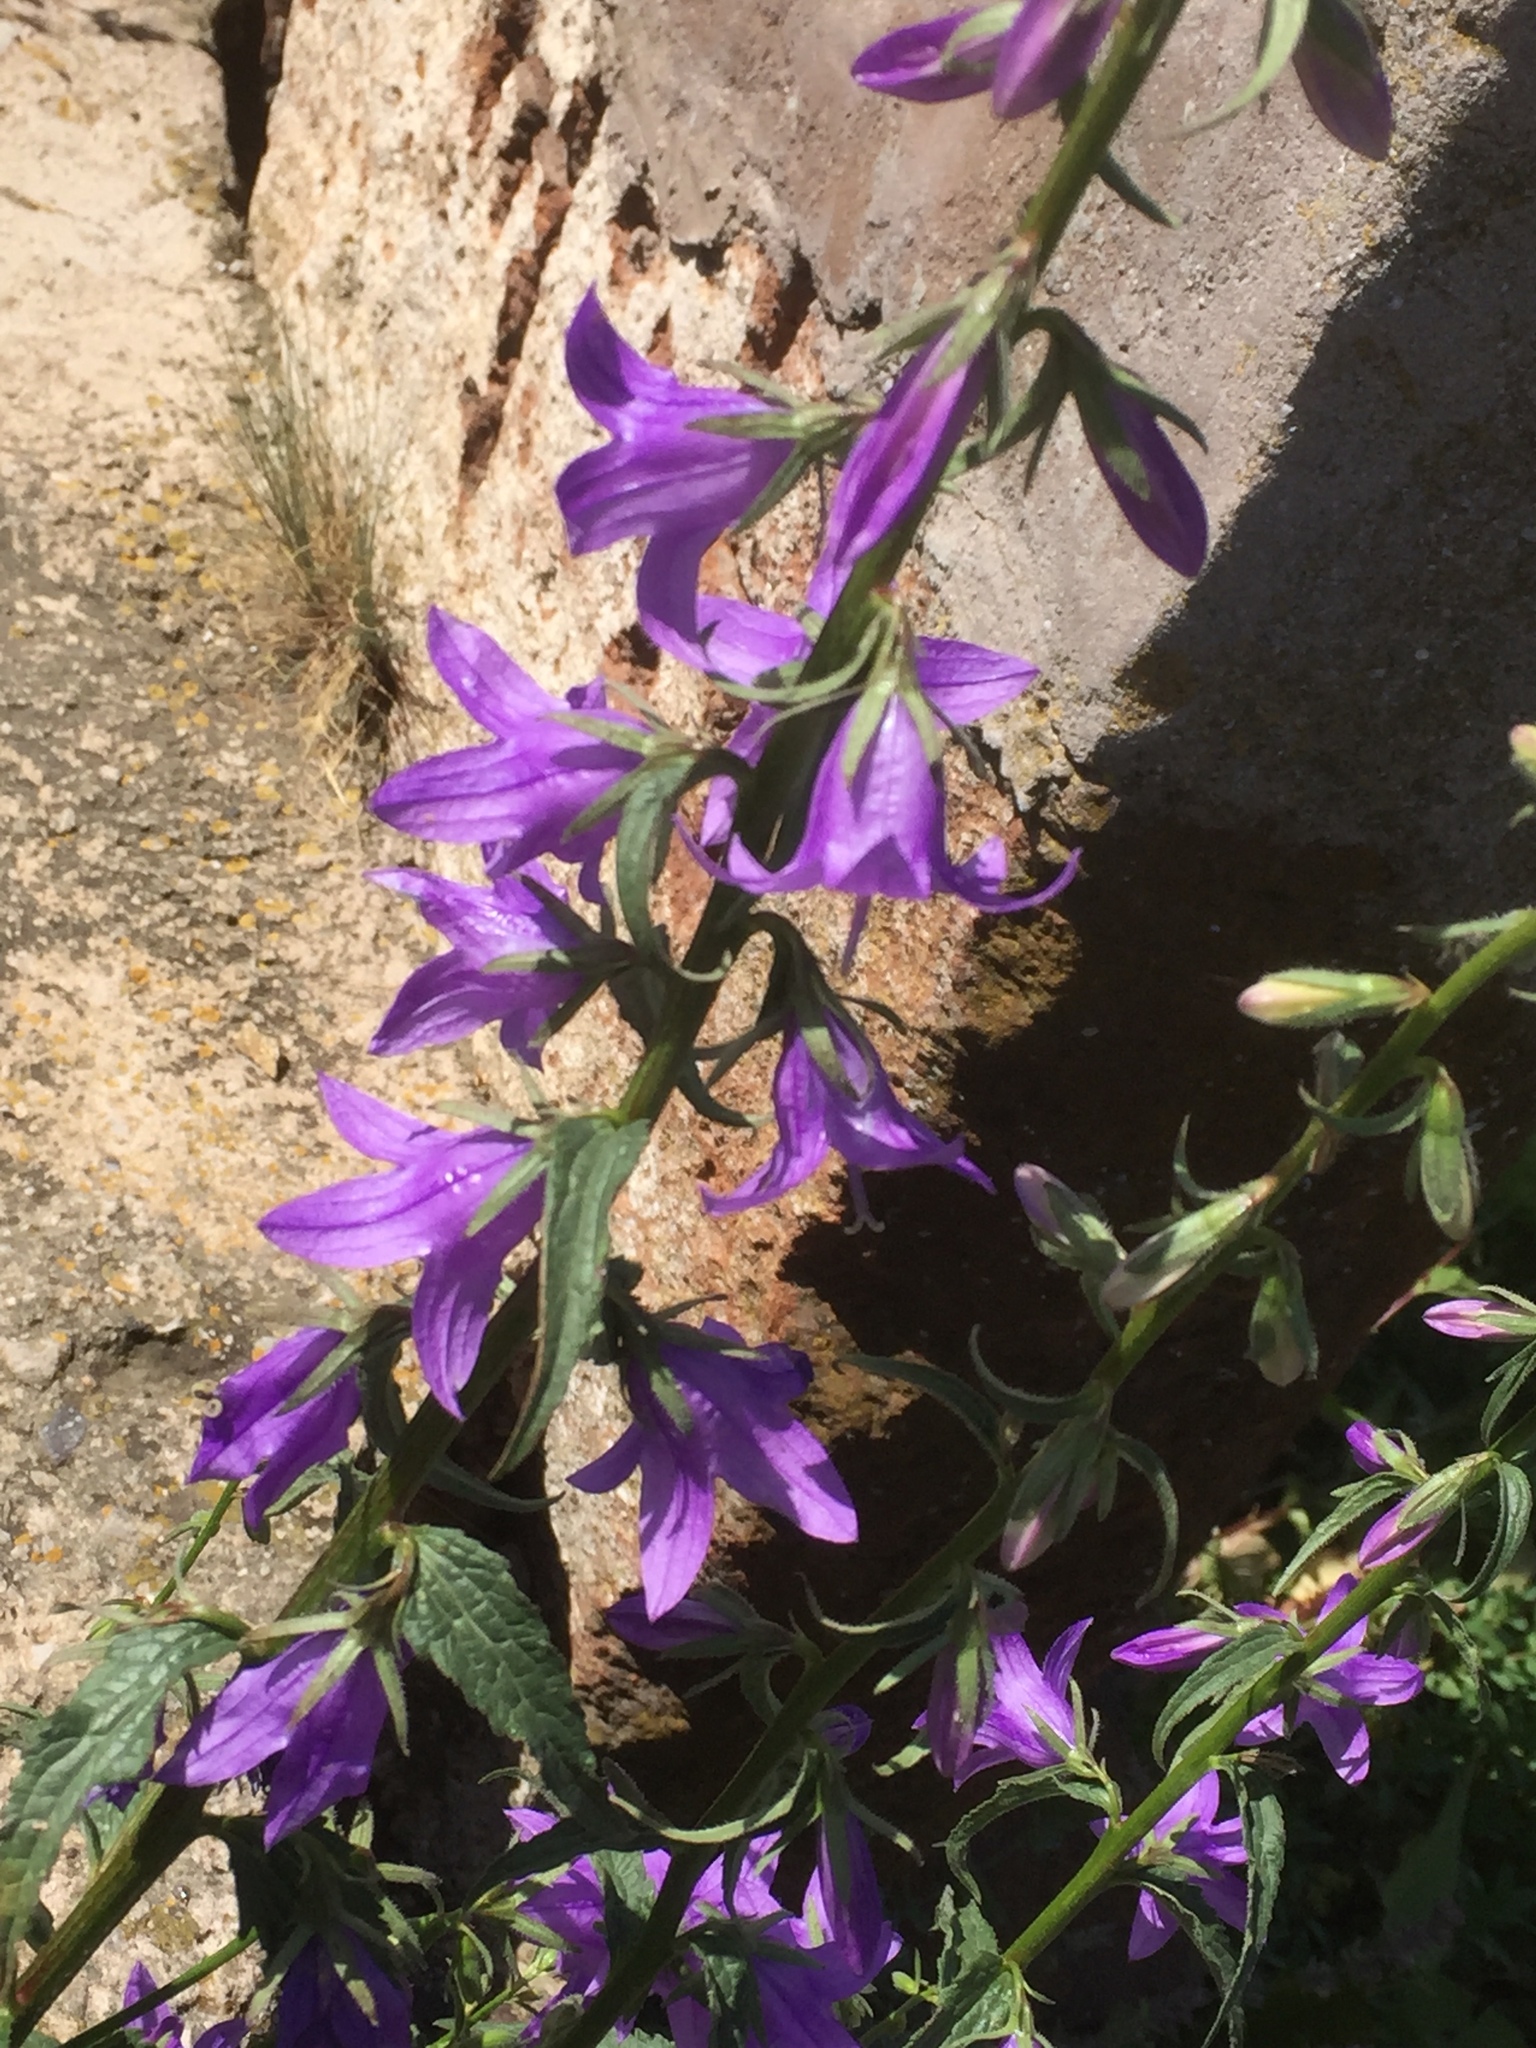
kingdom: Plantae
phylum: Tracheophyta
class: Magnoliopsida
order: Asterales
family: Campanulaceae
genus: Campanula
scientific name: Campanula rapunculoides
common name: Creeping bellflower
